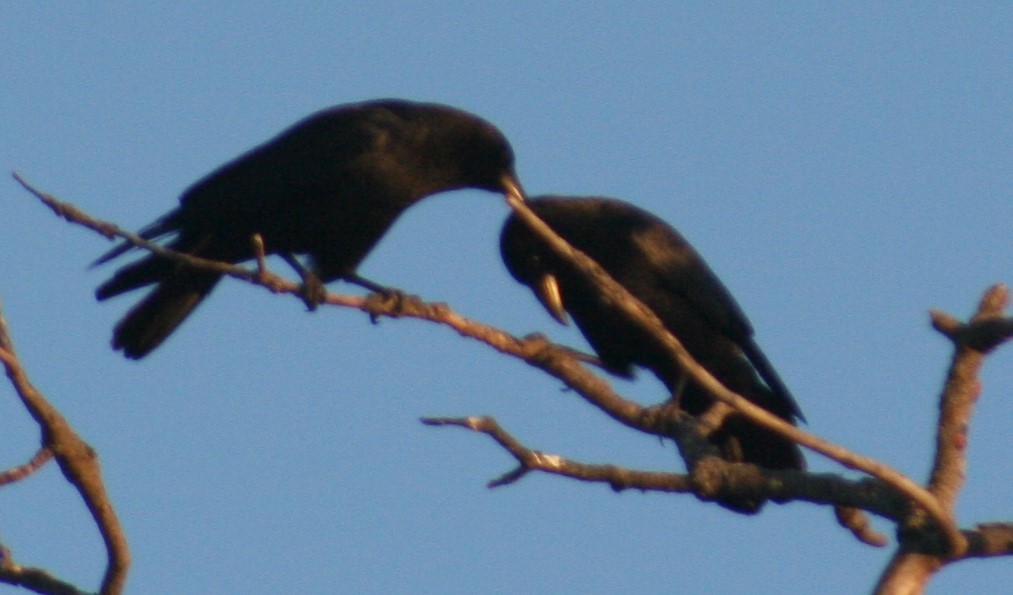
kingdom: Animalia
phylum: Chordata
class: Aves
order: Passeriformes
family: Corvidae
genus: Corvus
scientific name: Corvus brachyrhynchos
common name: American crow
